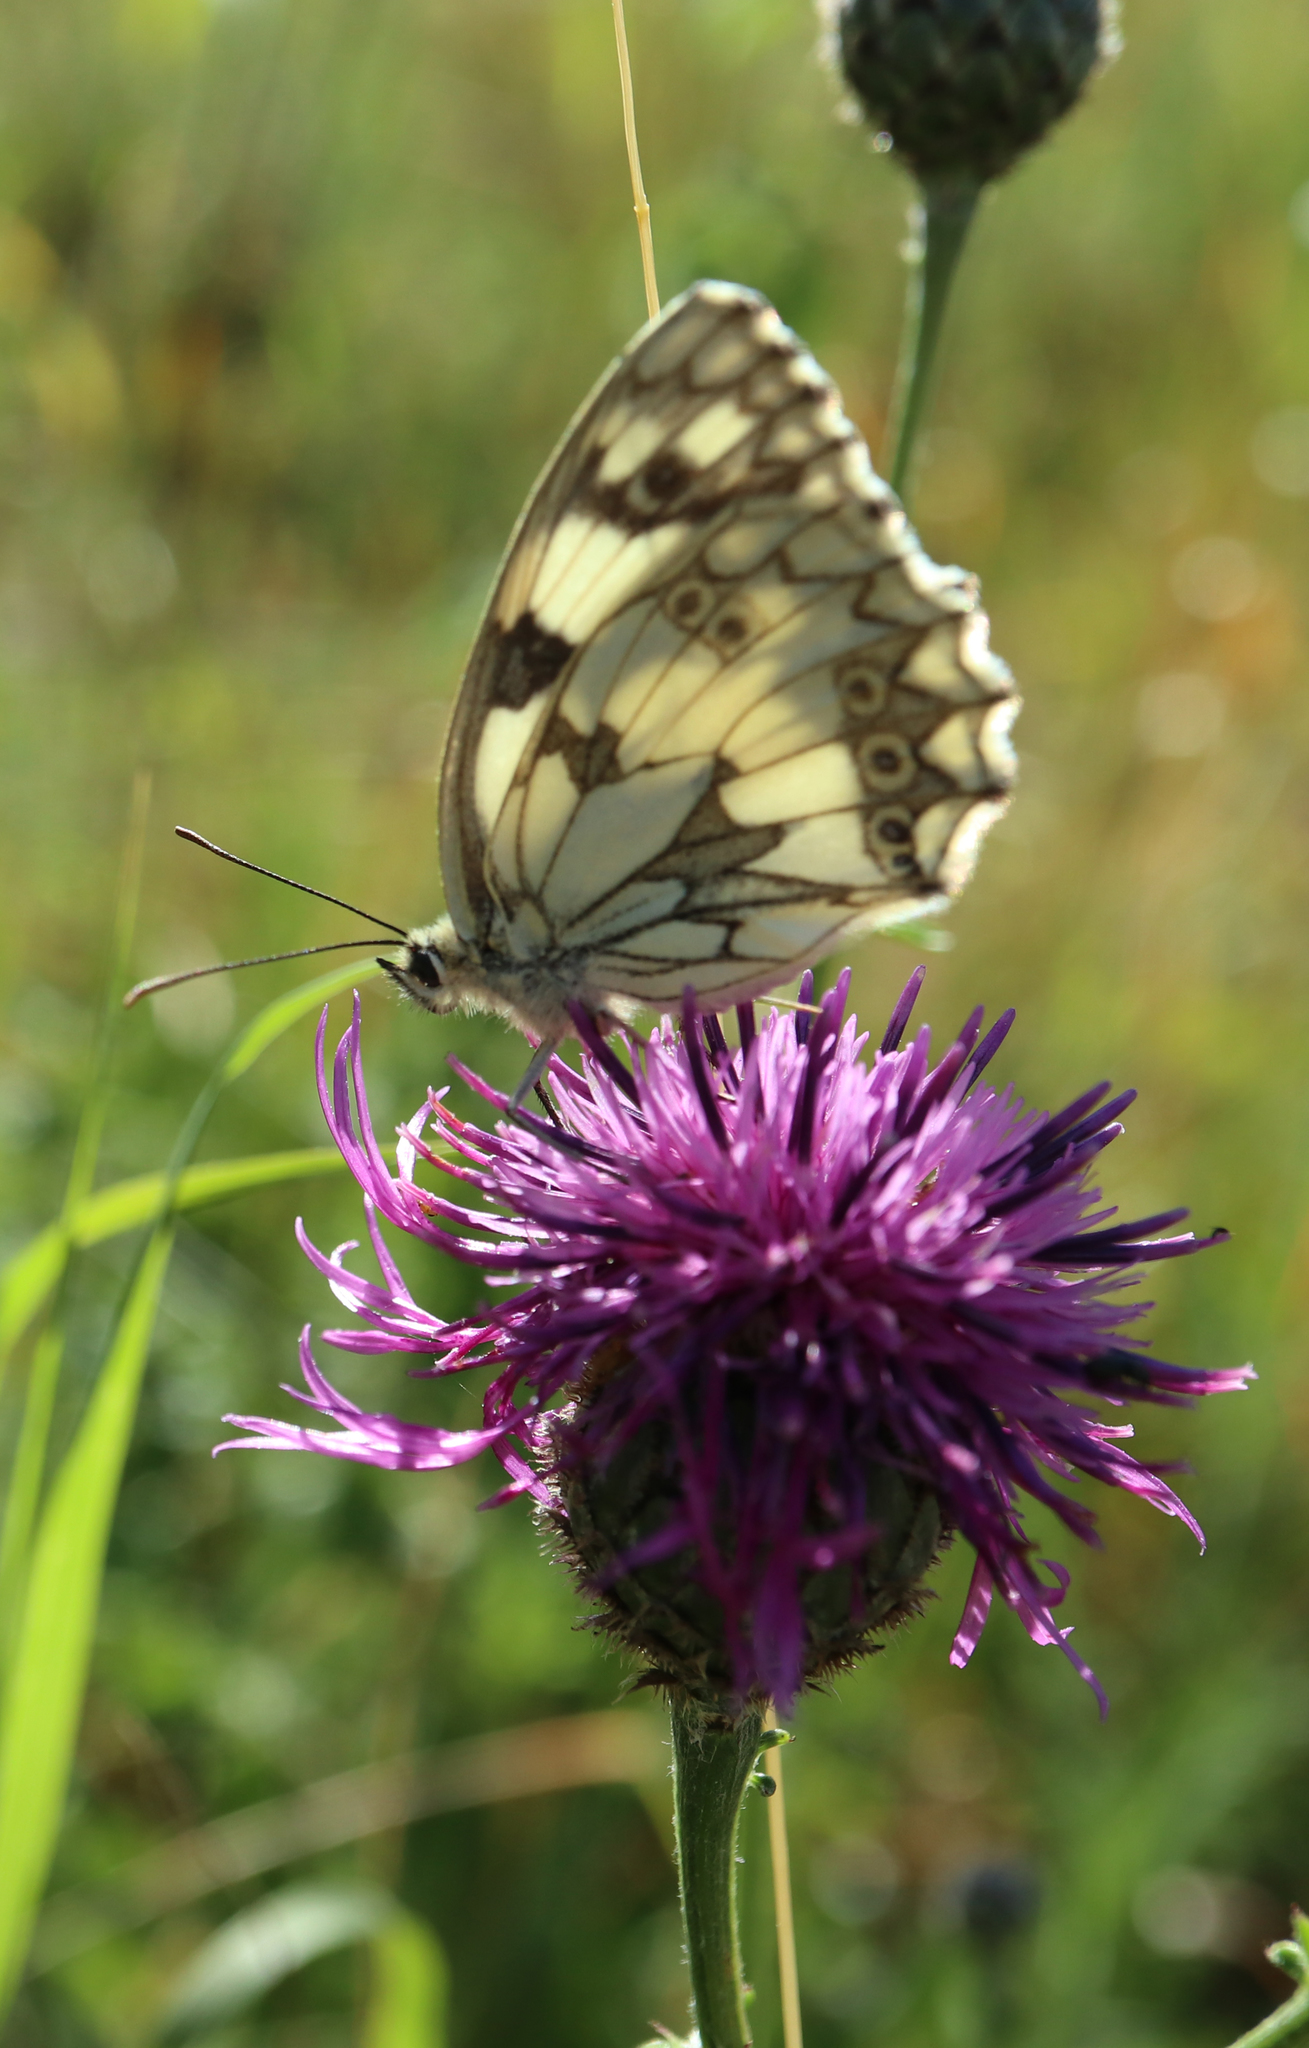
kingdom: Animalia
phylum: Arthropoda
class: Insecta
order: Lepidoptera
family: Nymphalidae
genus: Melanargia
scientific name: Melanargia galathea
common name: Marbled white
